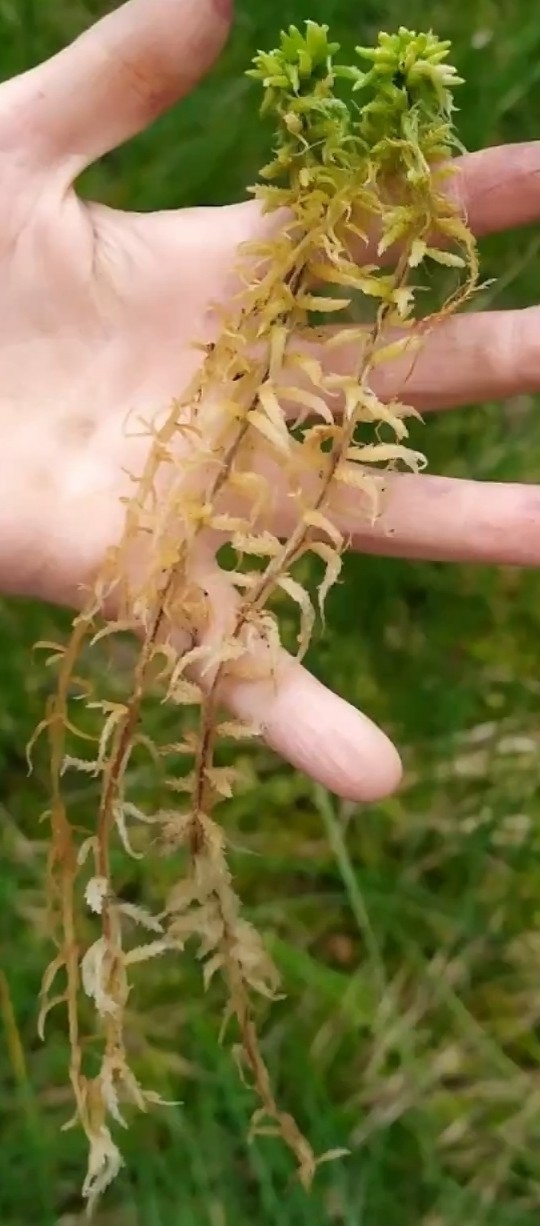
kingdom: Plantae
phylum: Bryophyta
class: Sphagnopsida
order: Sphagnales
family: Sphagnaceae
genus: Sphagnum
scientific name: Sphagnum centrale
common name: Central peat moss
